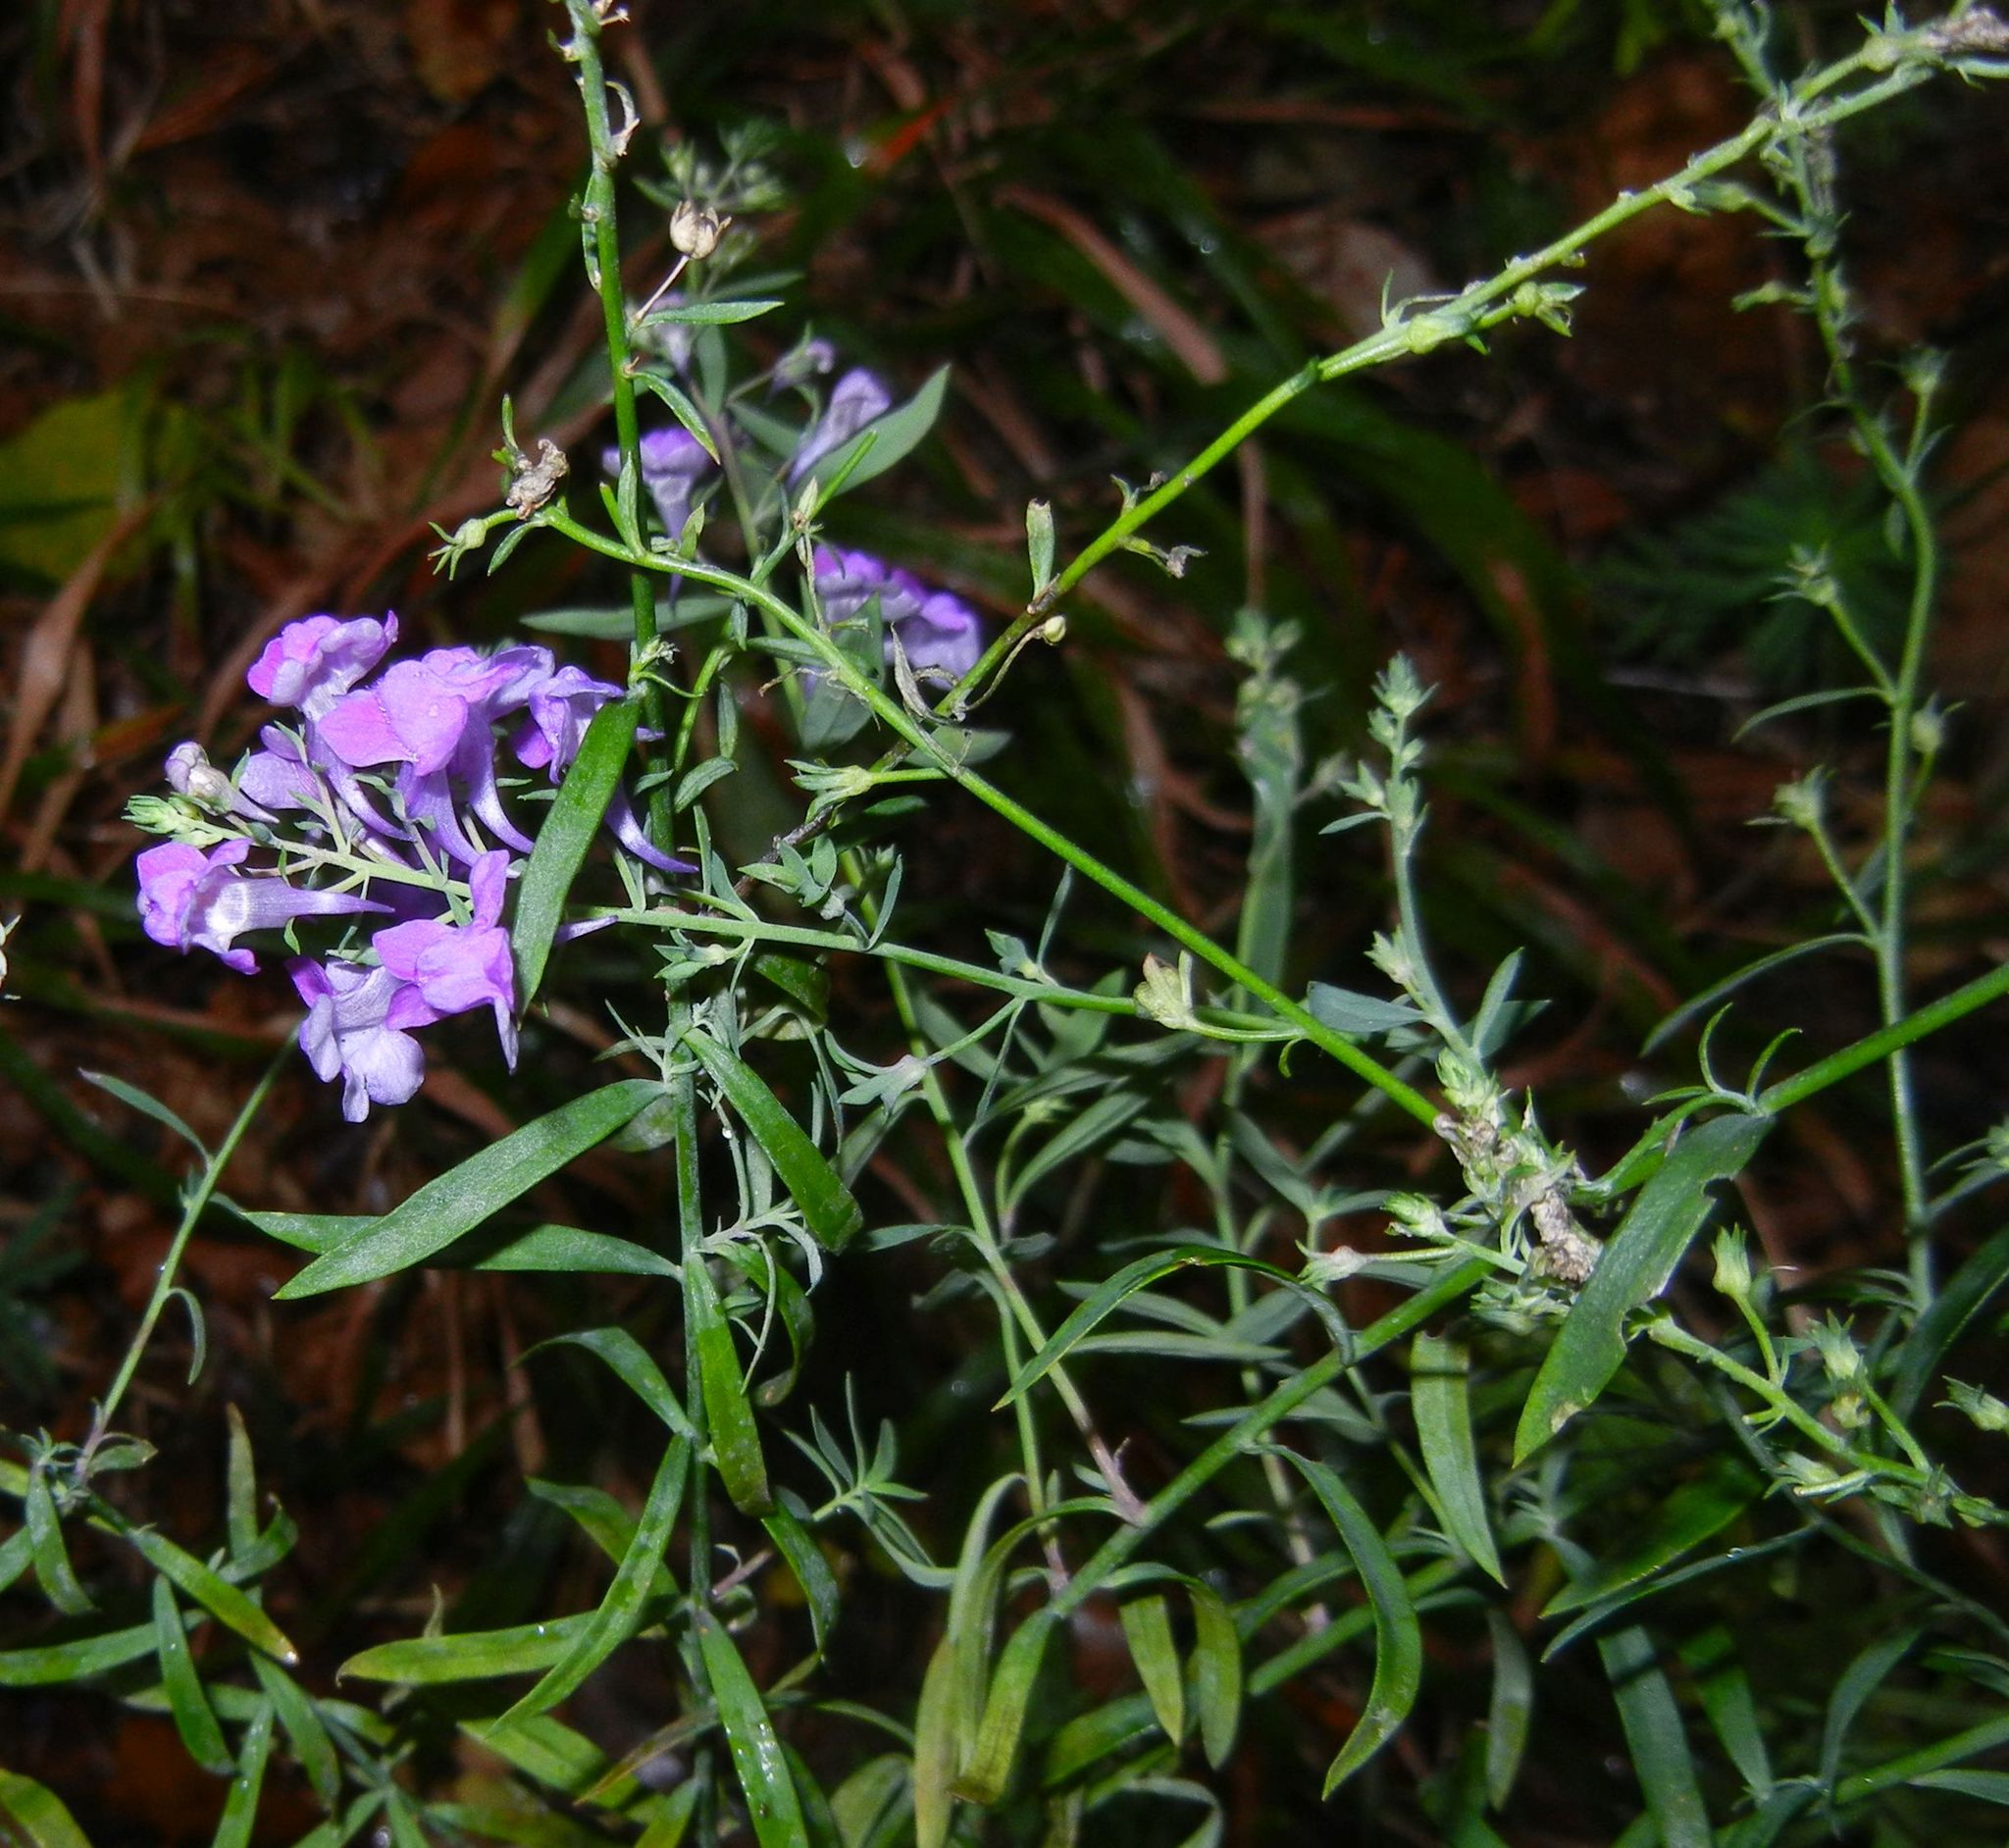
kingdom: Plantae
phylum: Tracheophyta
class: Magnoliopsida
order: Lamiales
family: Plantaginaceae
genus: Linaria
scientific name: Linaria purpurea
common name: Purple toadflax
